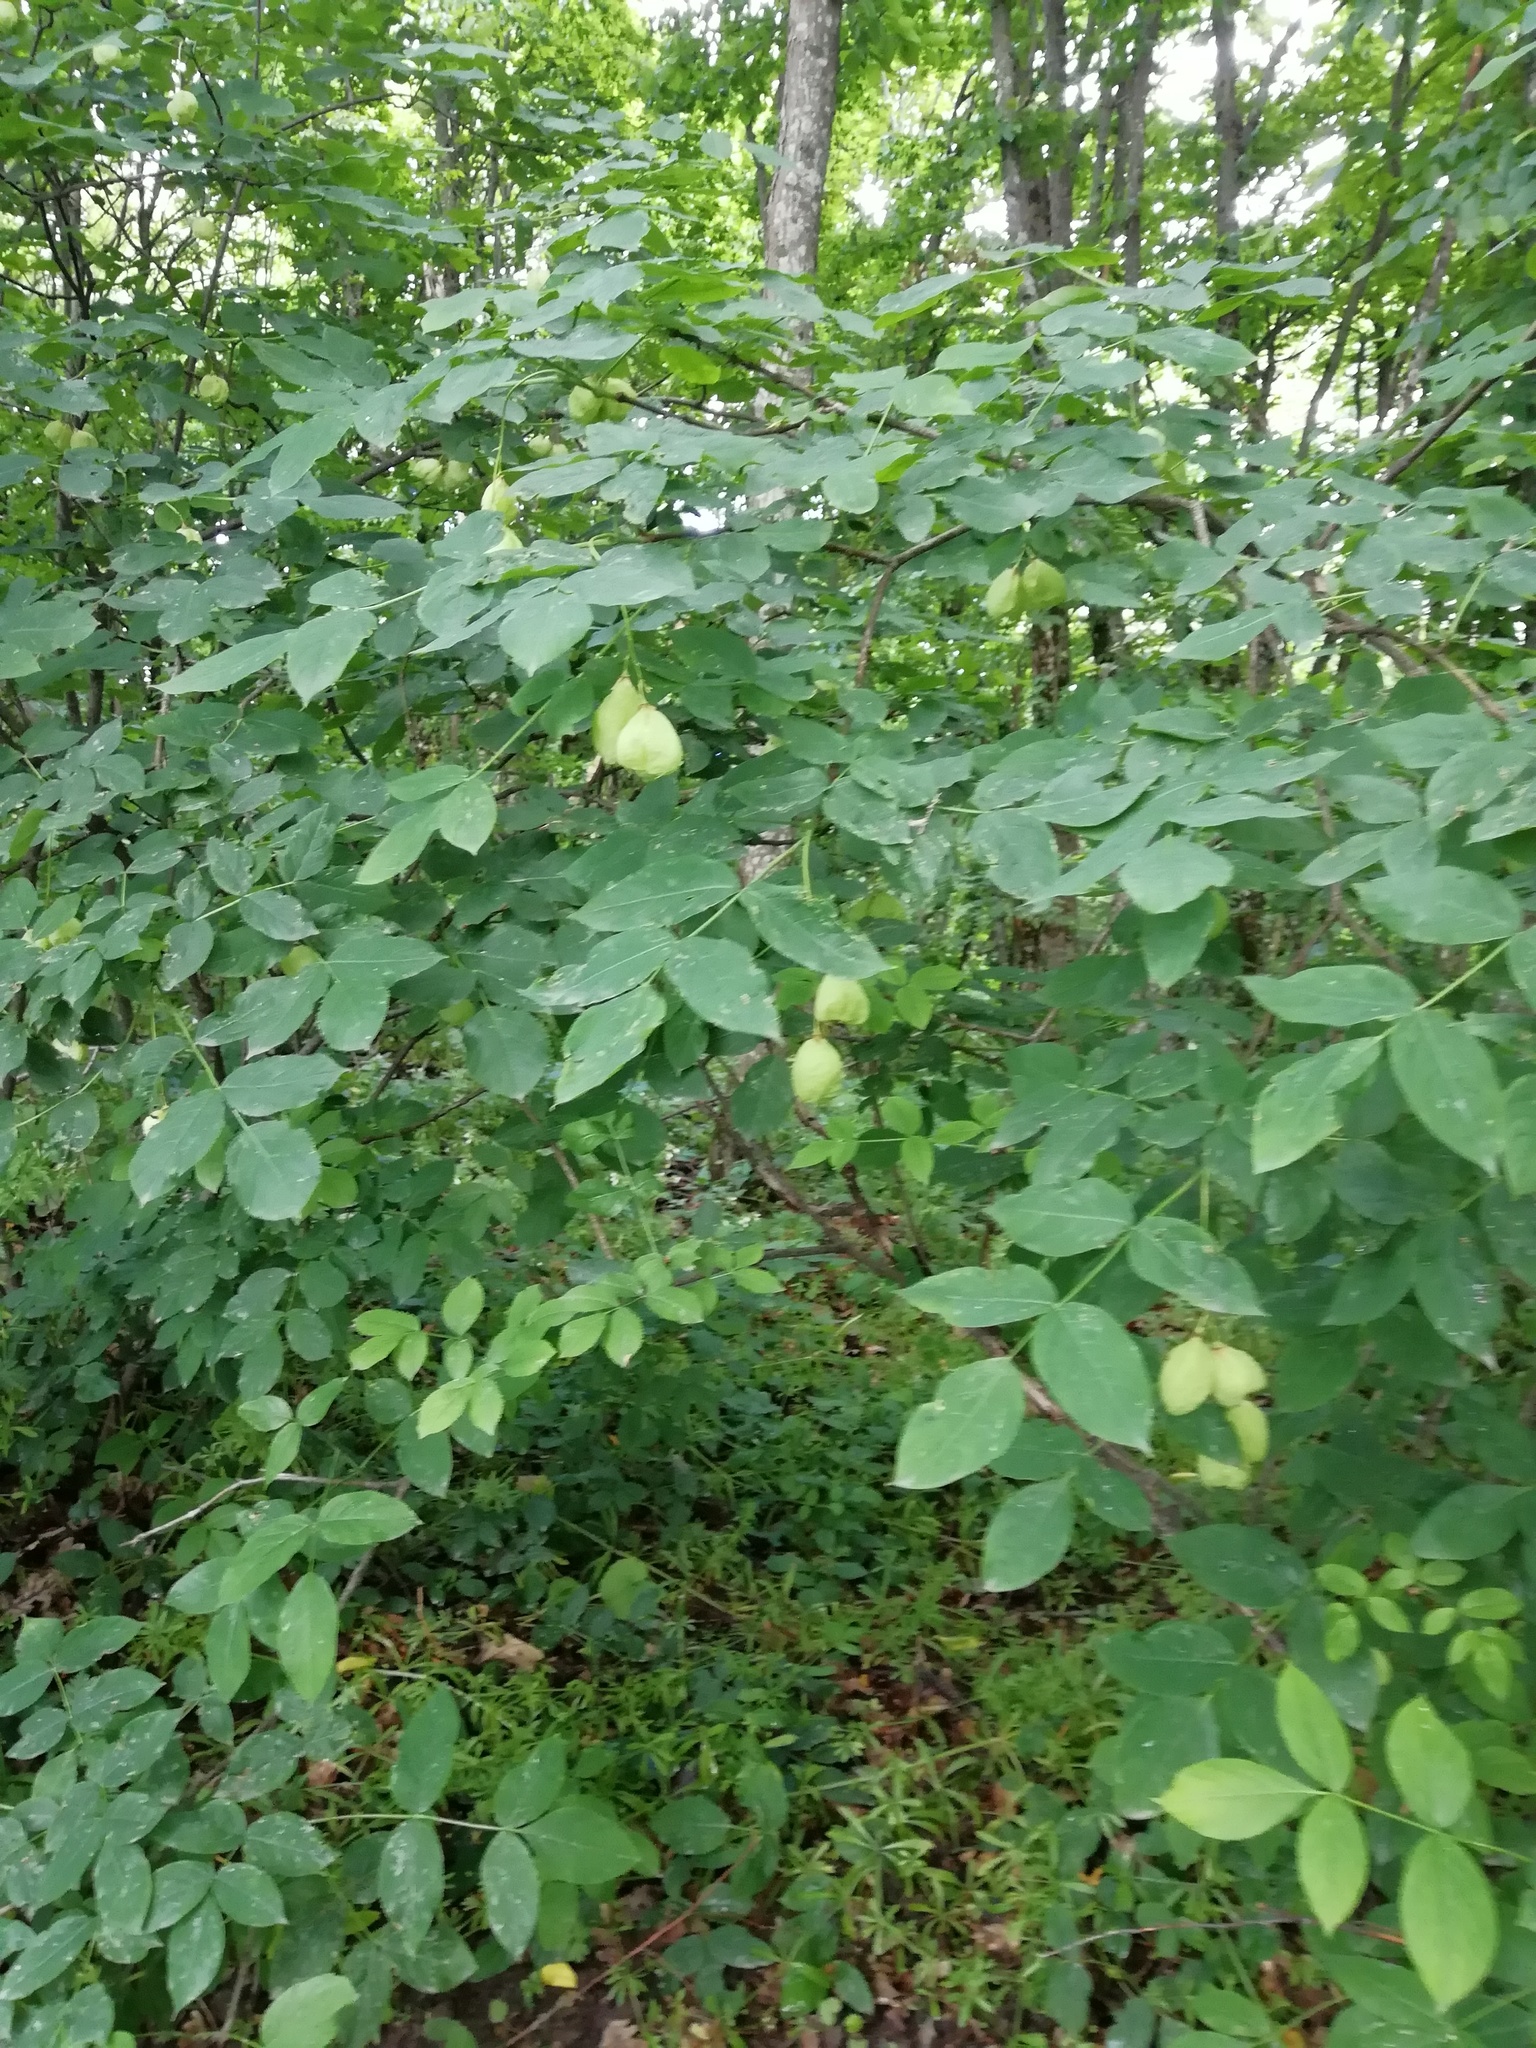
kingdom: Plantae
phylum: Tracheophyta
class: Magnoliopsida
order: Crossosomatales
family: Staphyleaceae
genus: Staphylea
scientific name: Staphylea pinnata
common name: Bladdernut
